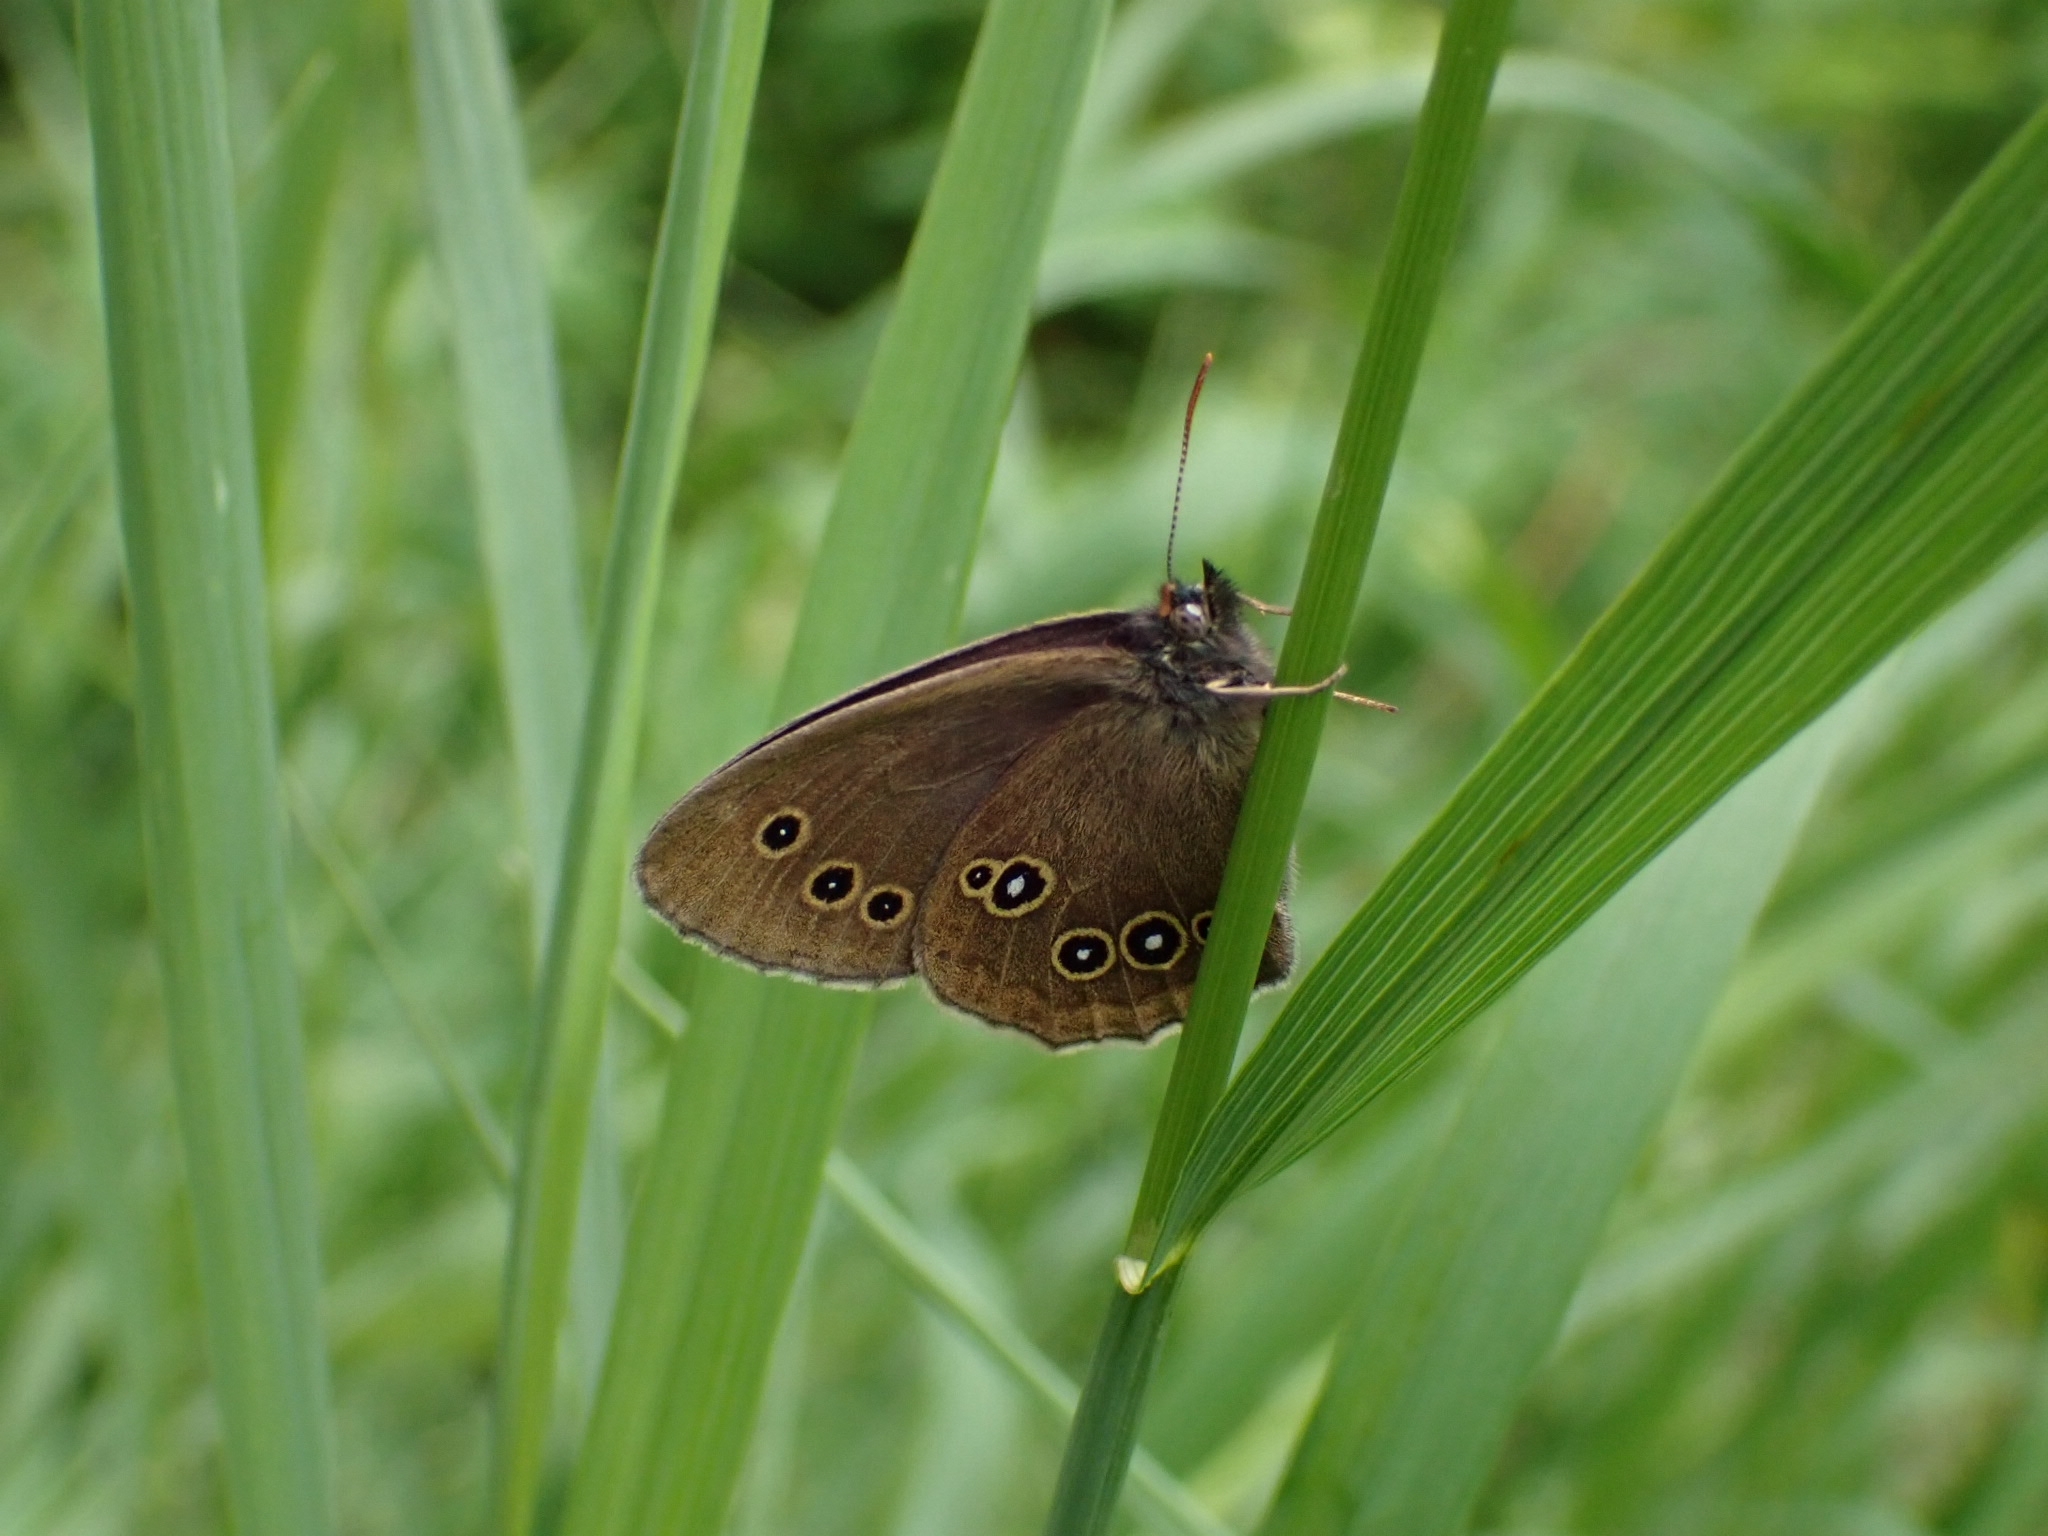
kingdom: Animalia
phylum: Arthropoda
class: Insecta
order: Lepidoptera
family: Nymphalidae
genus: Aphantopus
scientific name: Aphantopus hyperantus
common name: Ringlet
